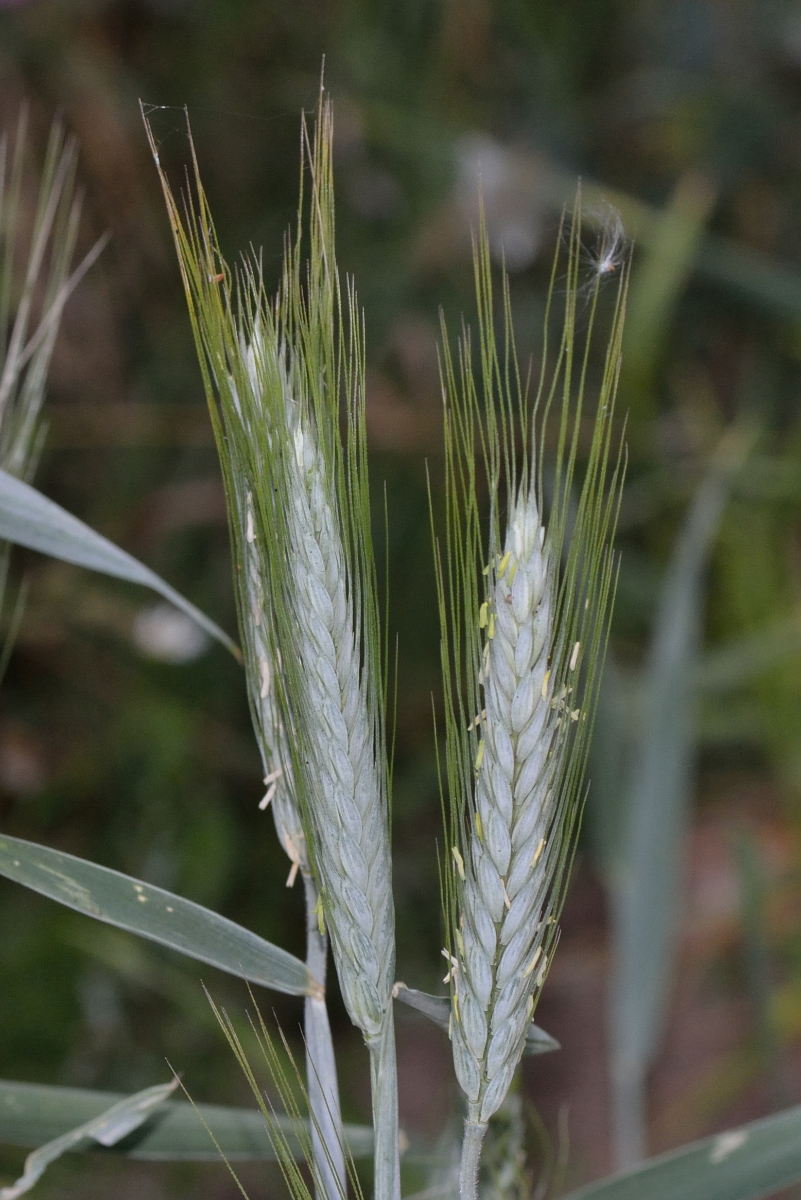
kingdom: Plantae
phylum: Tracheophyta
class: Liliopsida
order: Poales
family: Poaceae
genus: Secale
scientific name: Secale cereale
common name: Rye
